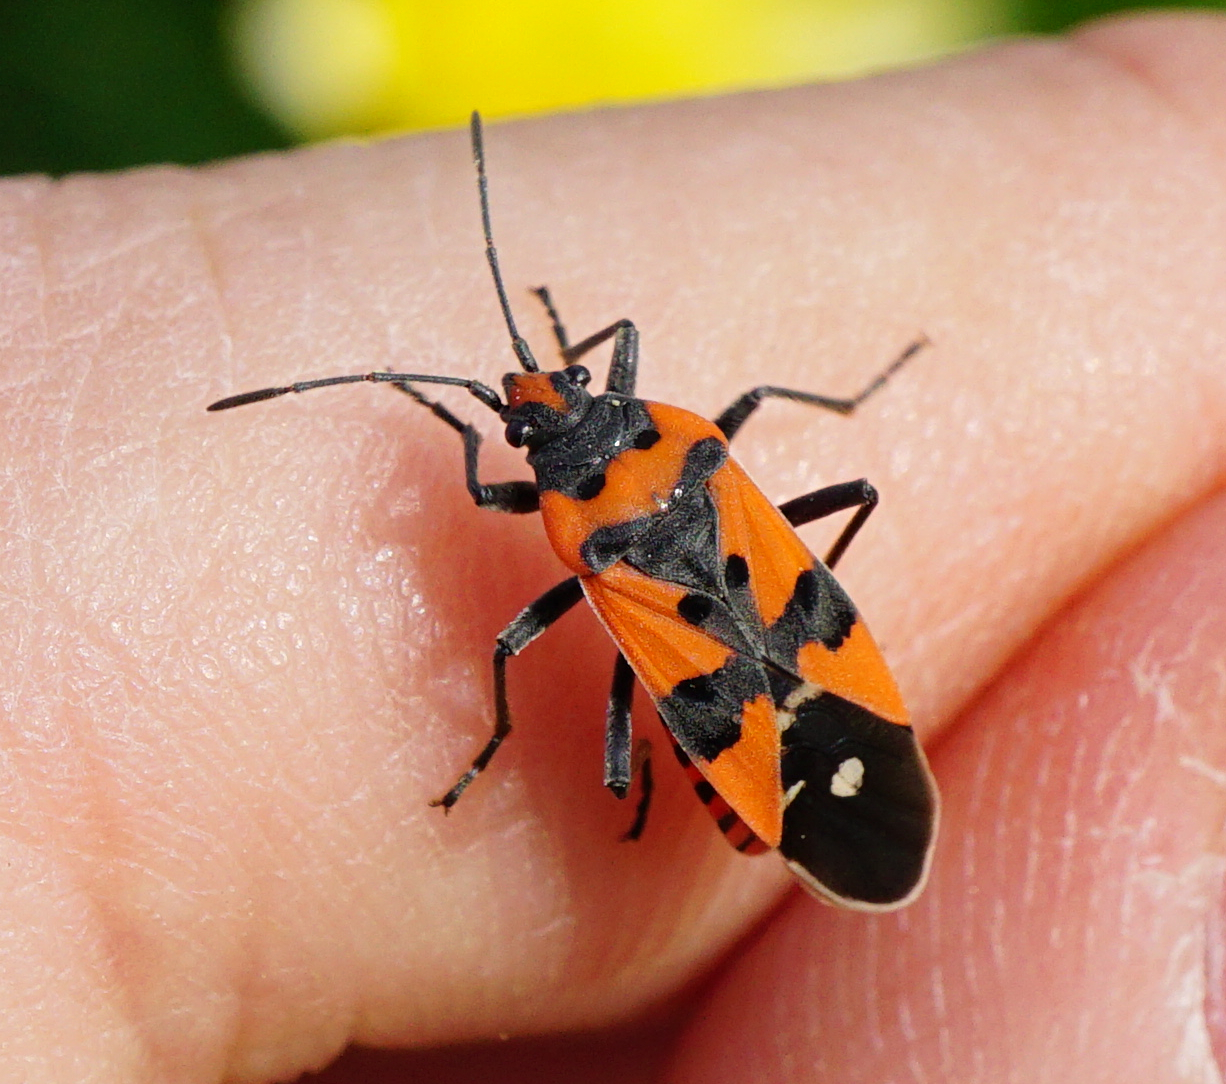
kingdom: Animalia
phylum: Arthropoda
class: Insecta
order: Hemiptera
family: Lygaeidae
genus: Lygaeus
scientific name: Lygaeus equestris
